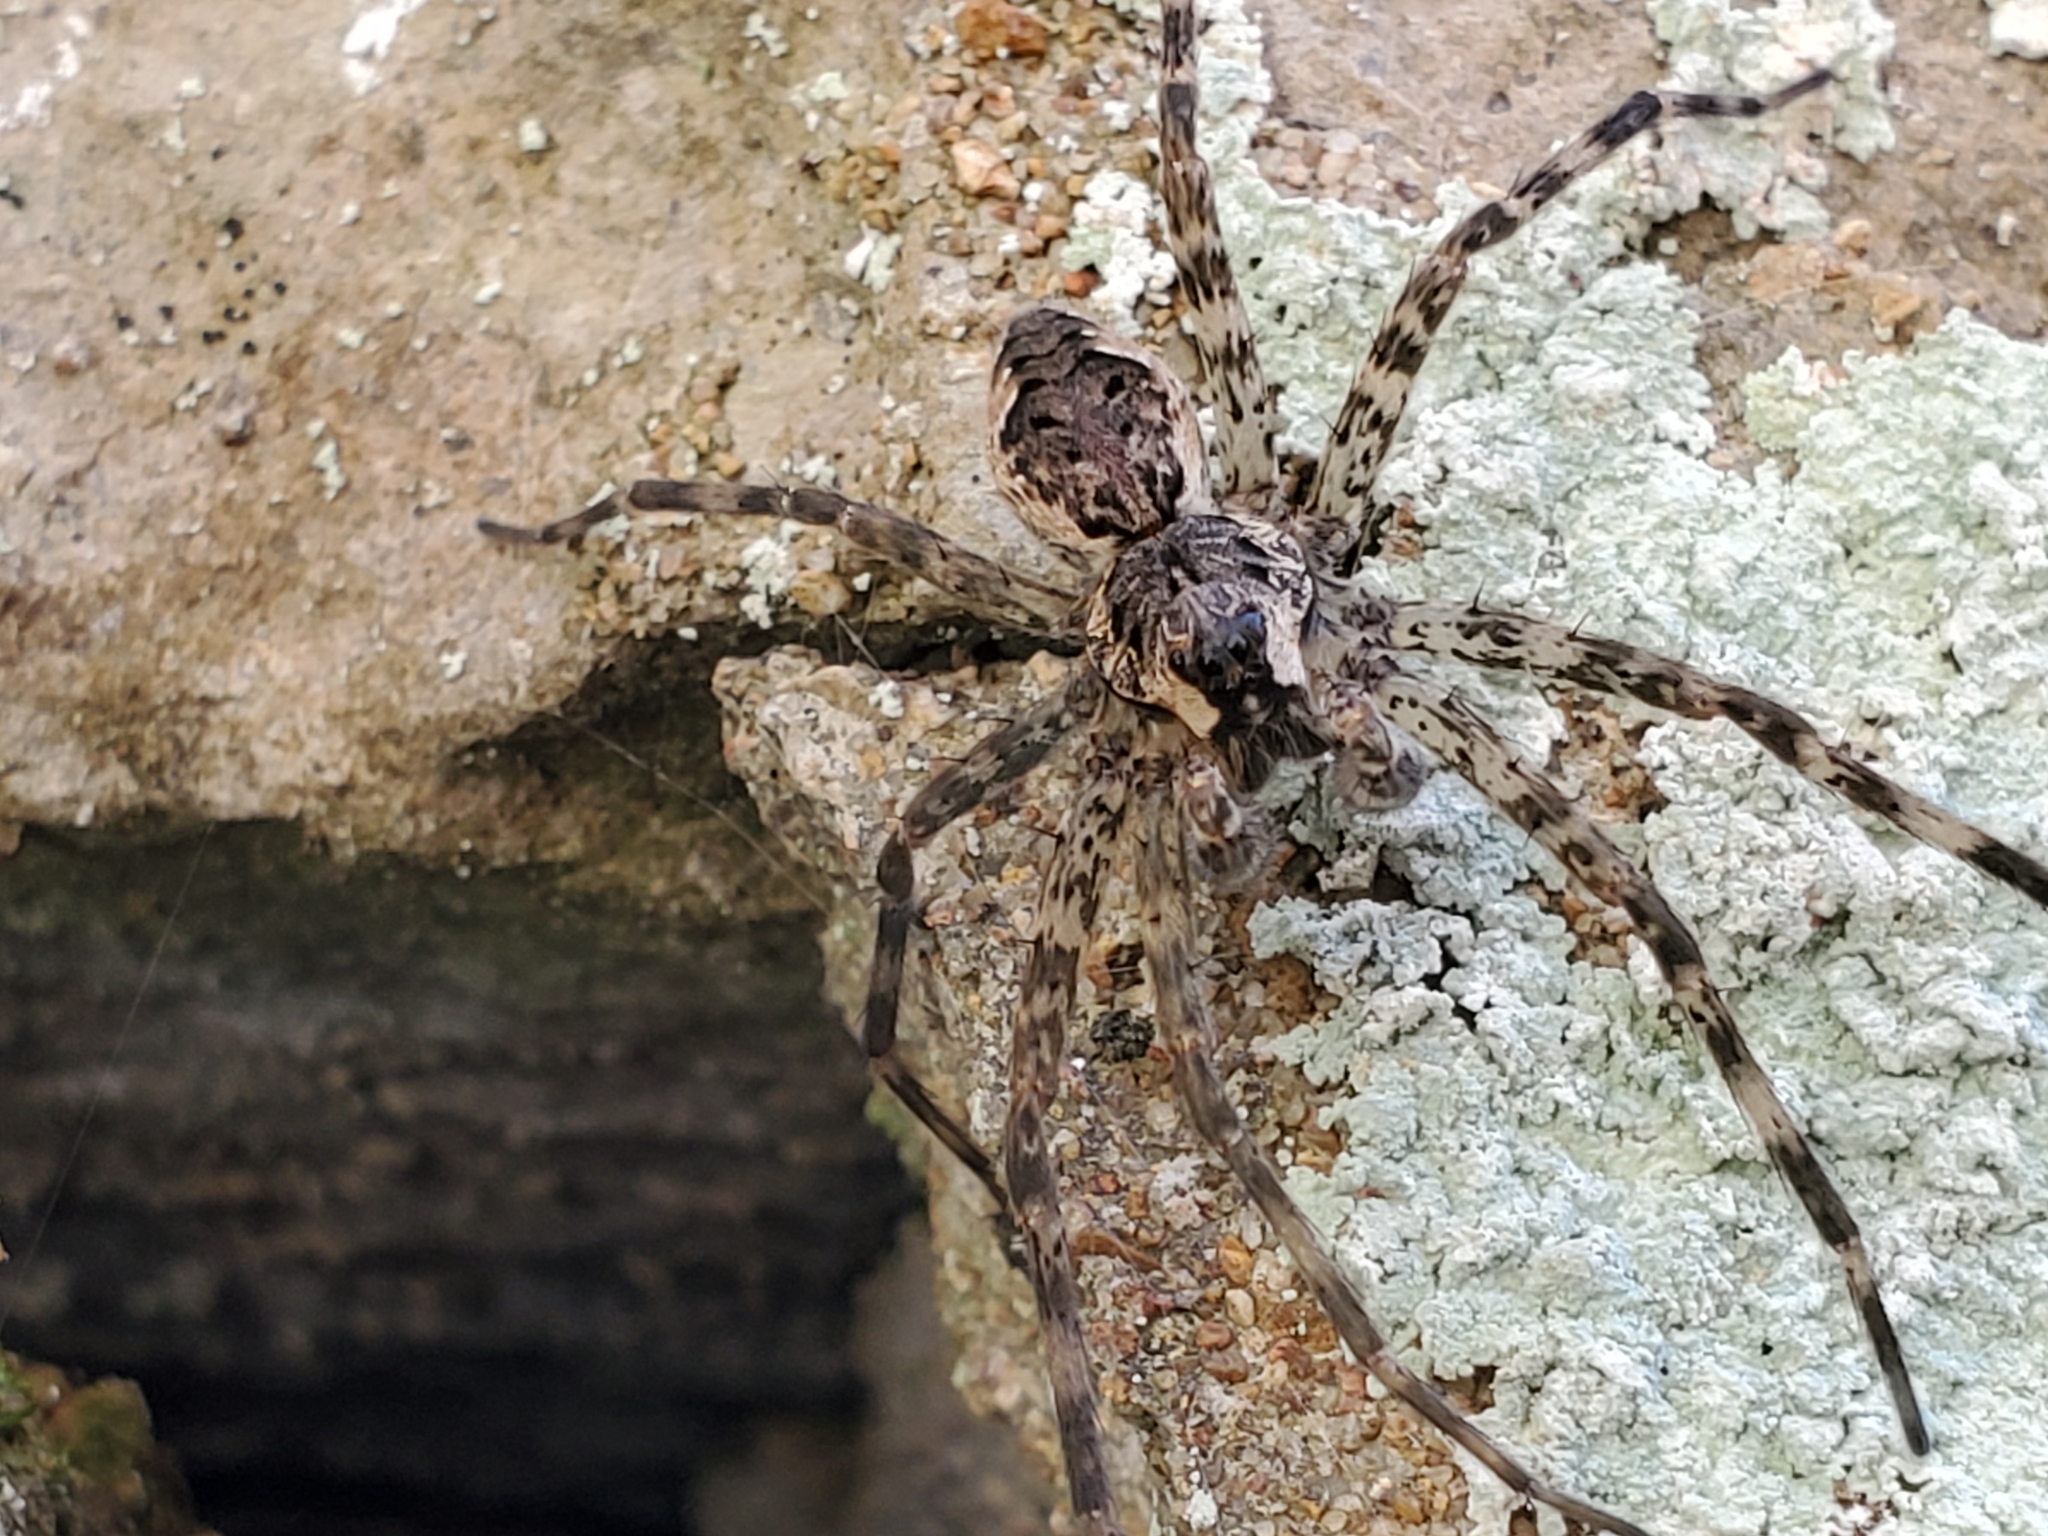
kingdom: Animalia
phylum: Arthropoda
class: Arachnida
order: Araneae
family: Pisauridae
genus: Dolomedes
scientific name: Dolomedes tenebrosus
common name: Dark fishing spider
